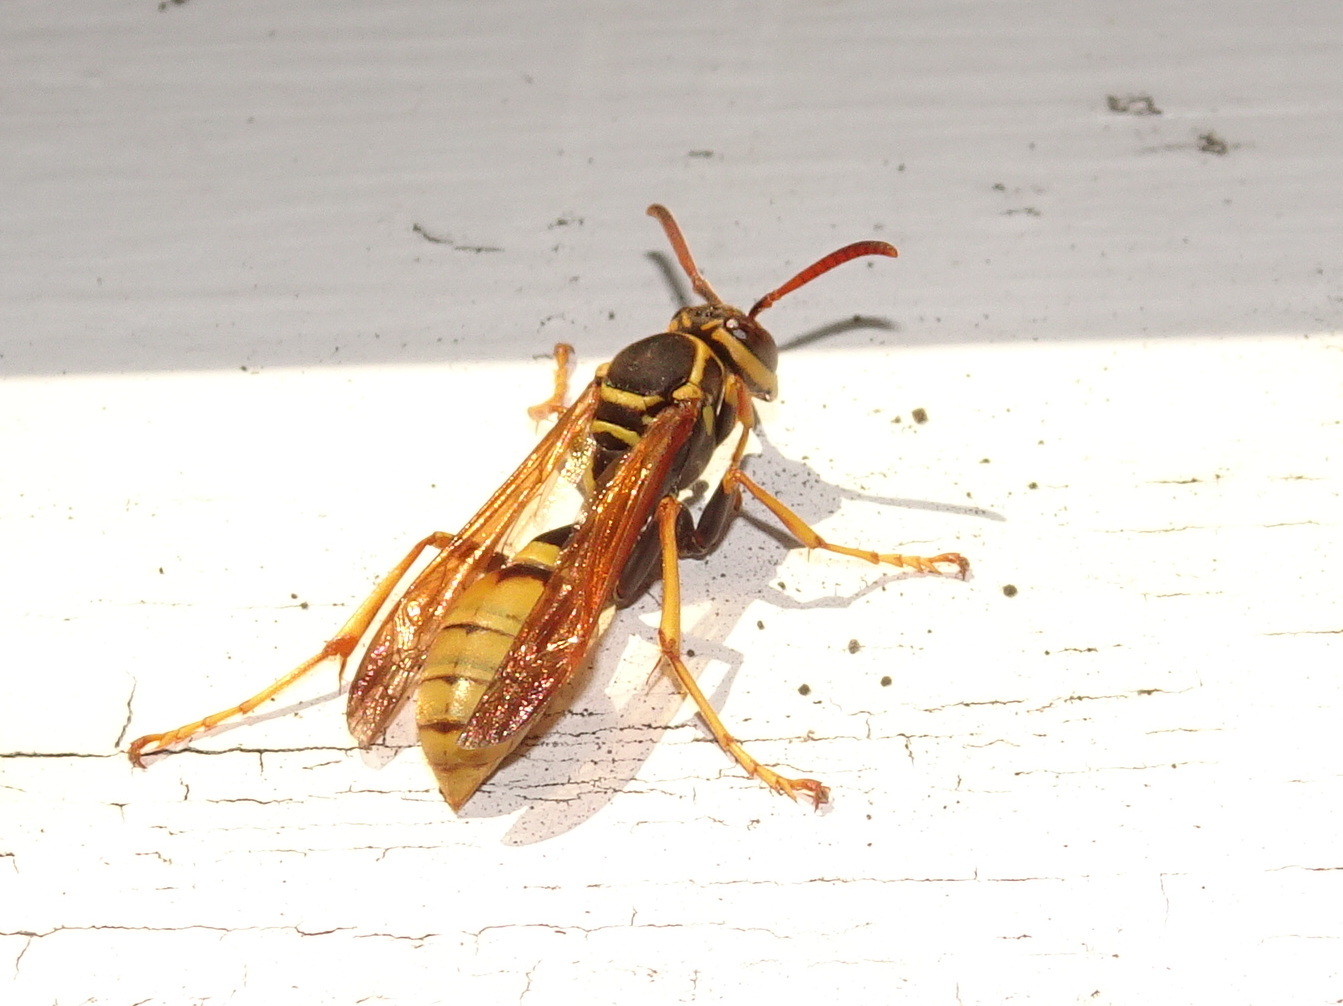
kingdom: Animalia
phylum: Arthropoda
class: Insecta
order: Hymenoptera
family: Vespidae
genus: Mischocyttarus
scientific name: Mischocyttarus flavitarsis
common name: Wasp
